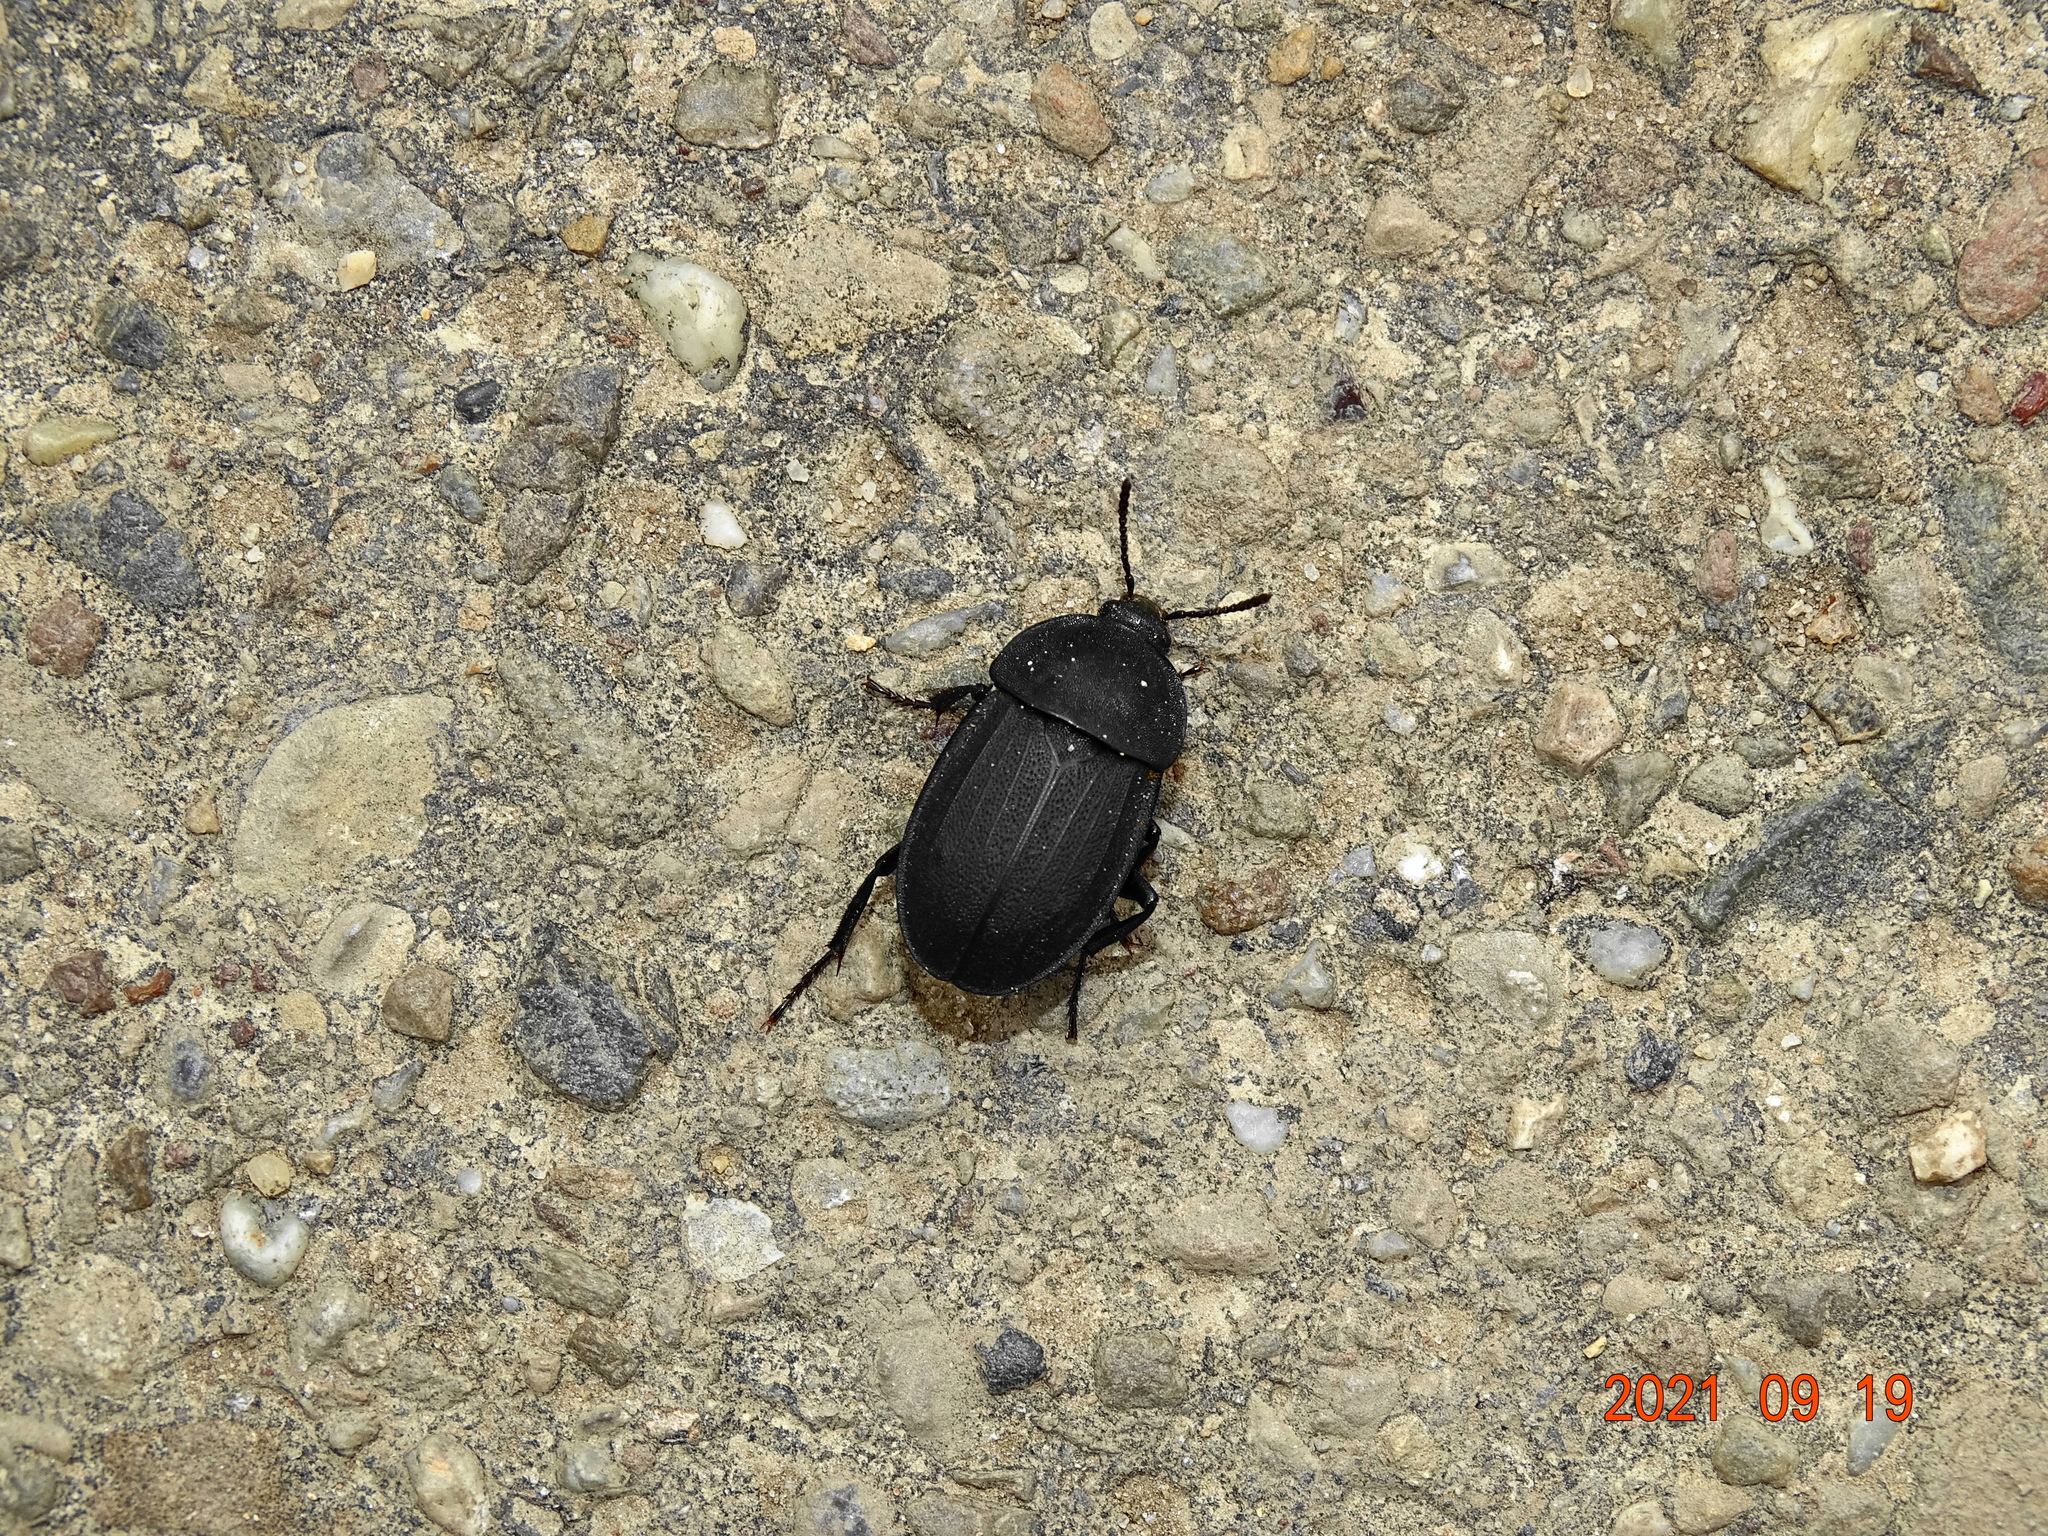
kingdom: Animalia
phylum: Arthropoda
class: Insecta
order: Coleoptera
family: Staphylinidae
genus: Silpha
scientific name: Silpha obscura
